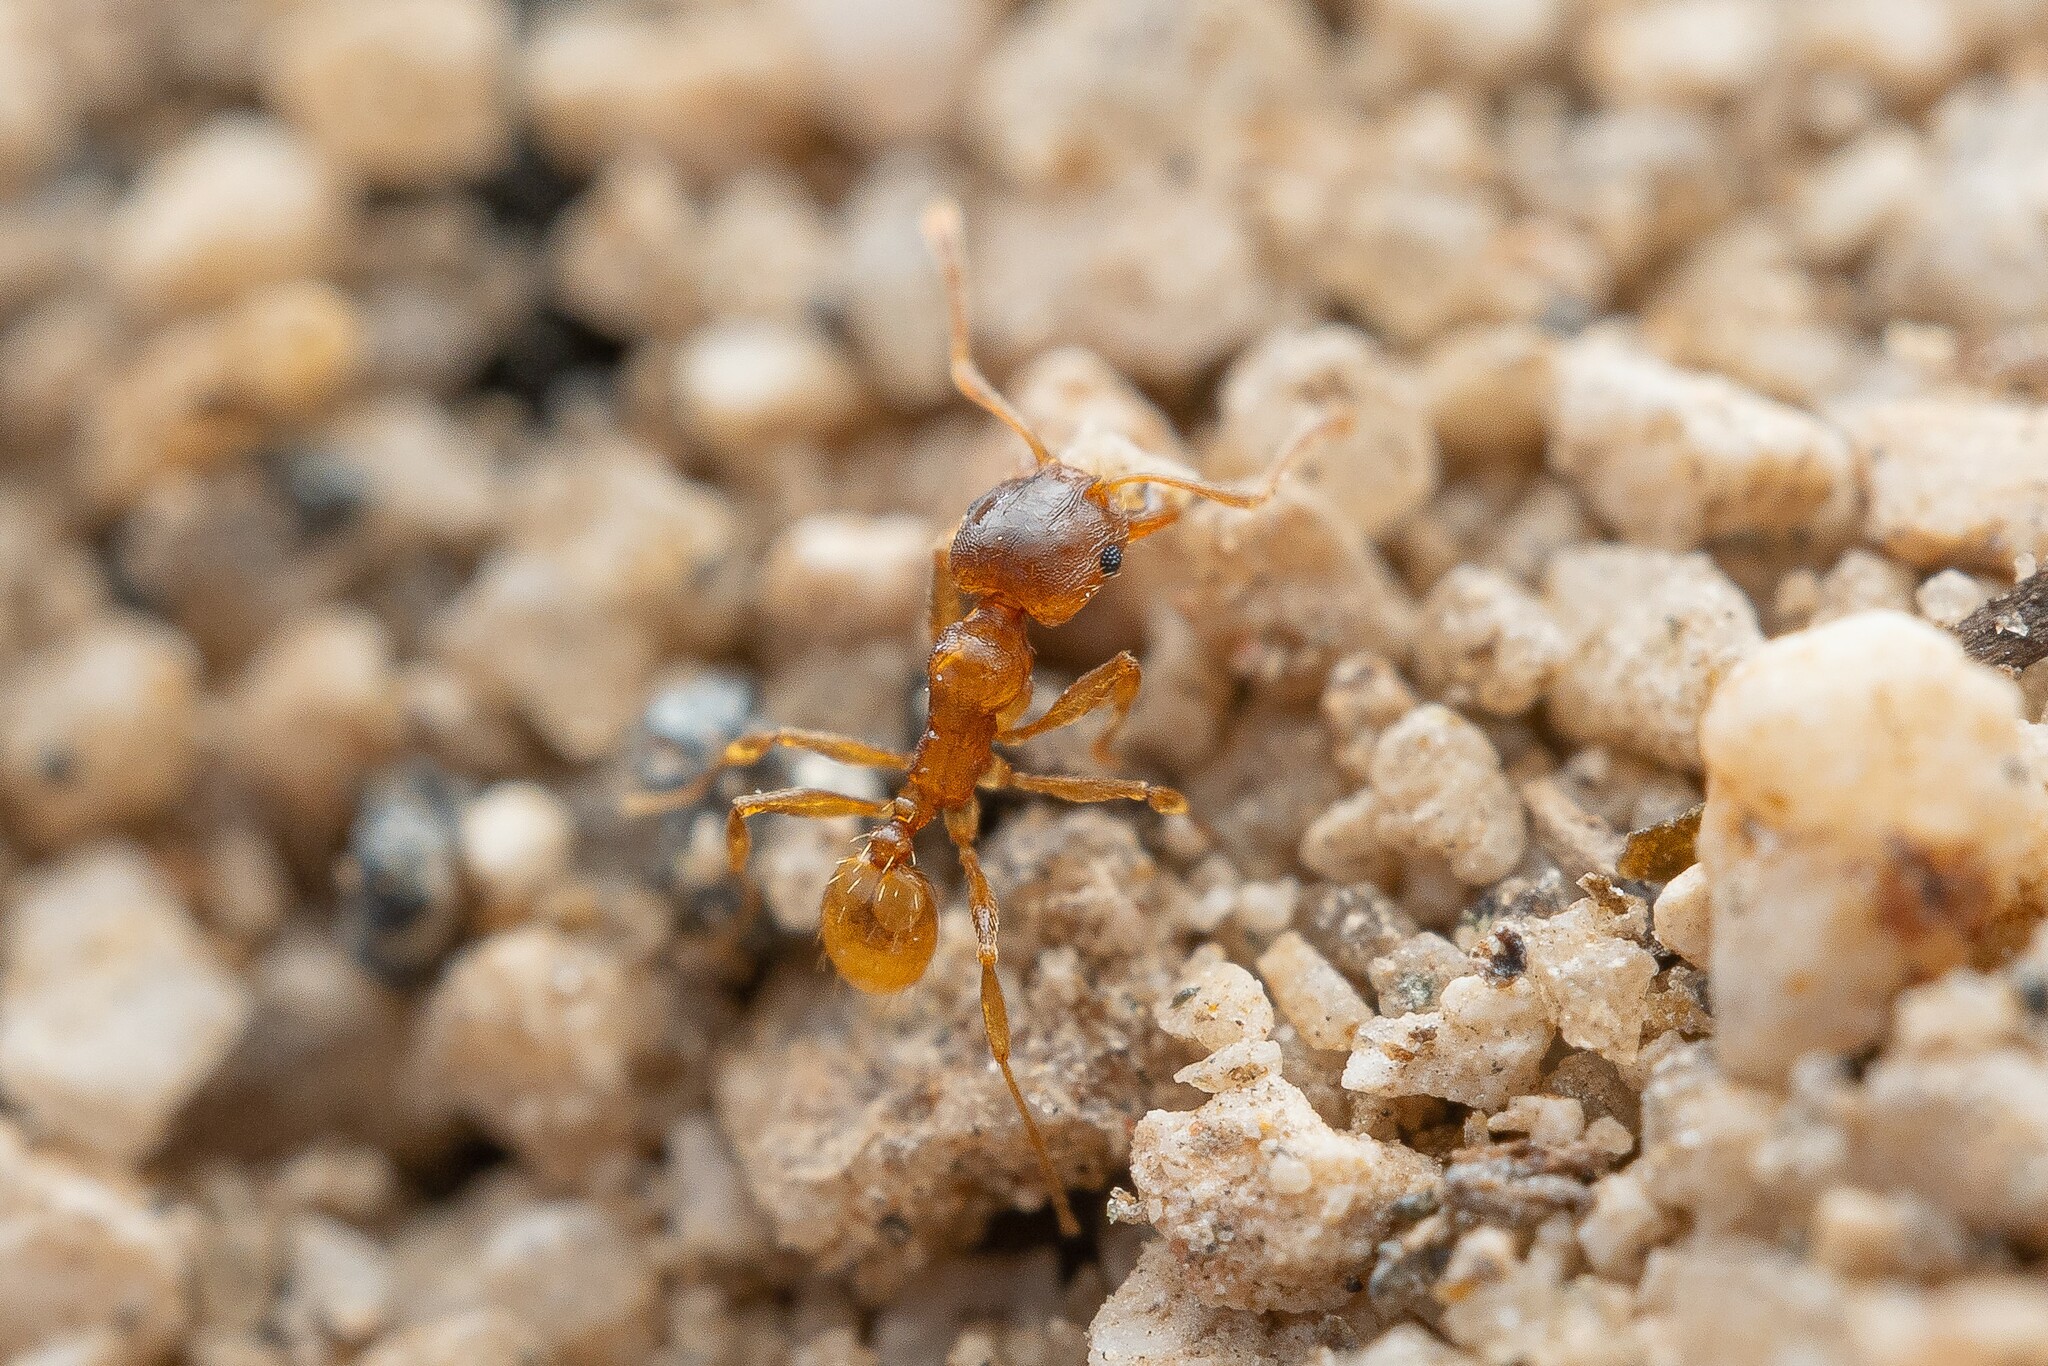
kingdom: Animalia
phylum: Arthropoda
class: Insecta
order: Hymenoptera
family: Formicidae
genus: Pheidole
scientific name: Pheidole cerebrosior
